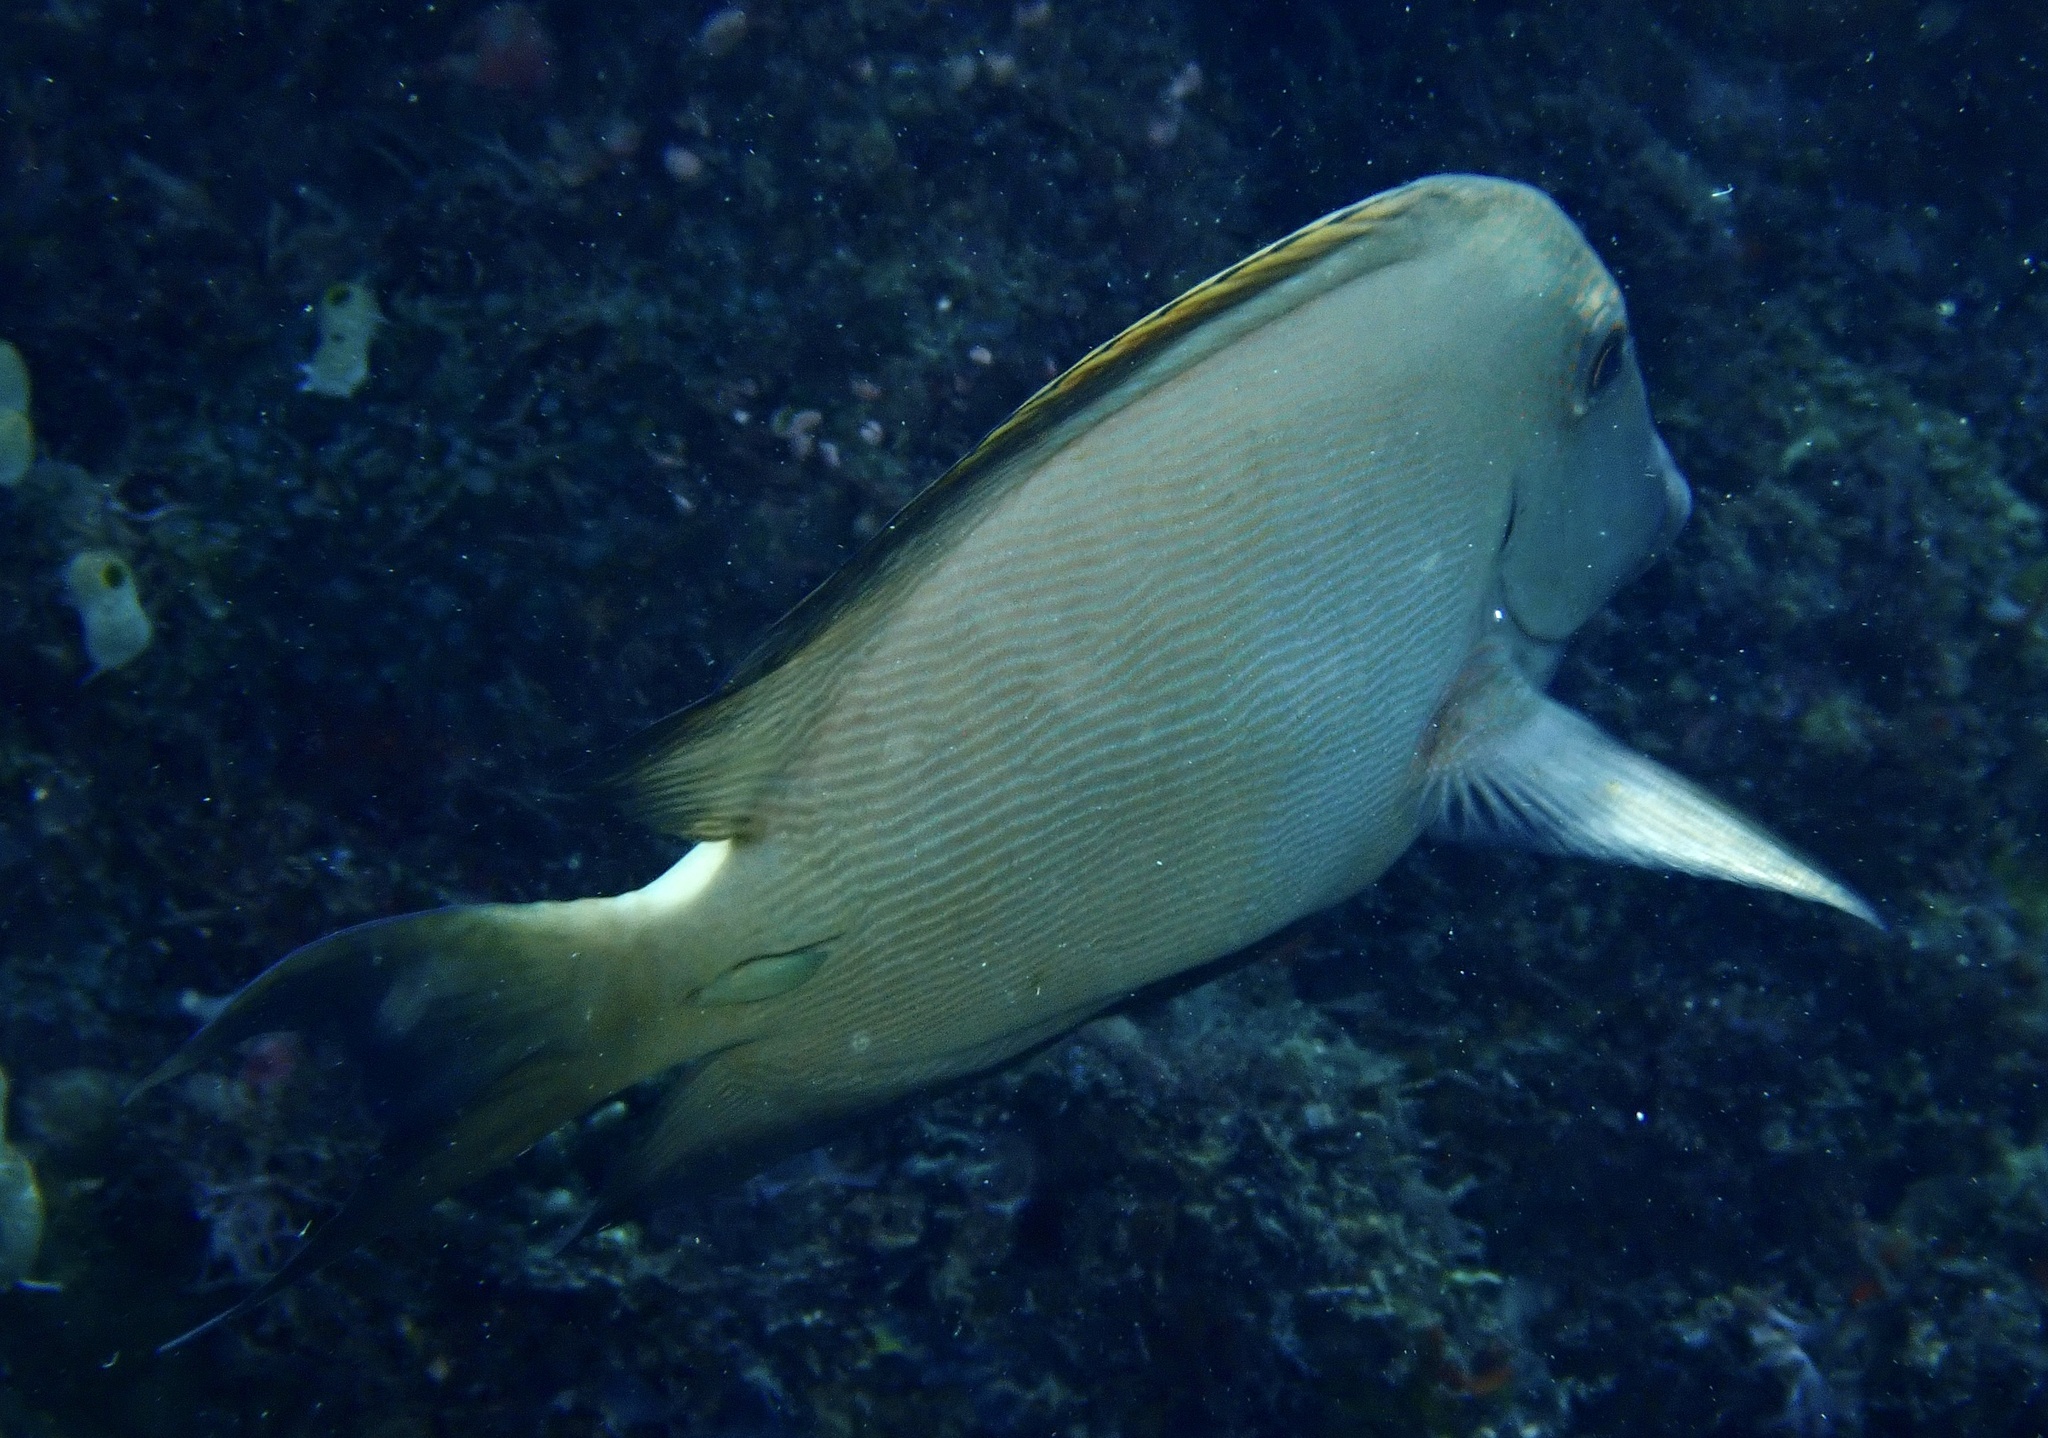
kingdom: Animalia
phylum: Chordata
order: Perciformes
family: Acanthuridae
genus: Ctenochaetus
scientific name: Ctenochaetus striatus
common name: Bristle-toothed surgeonfish
